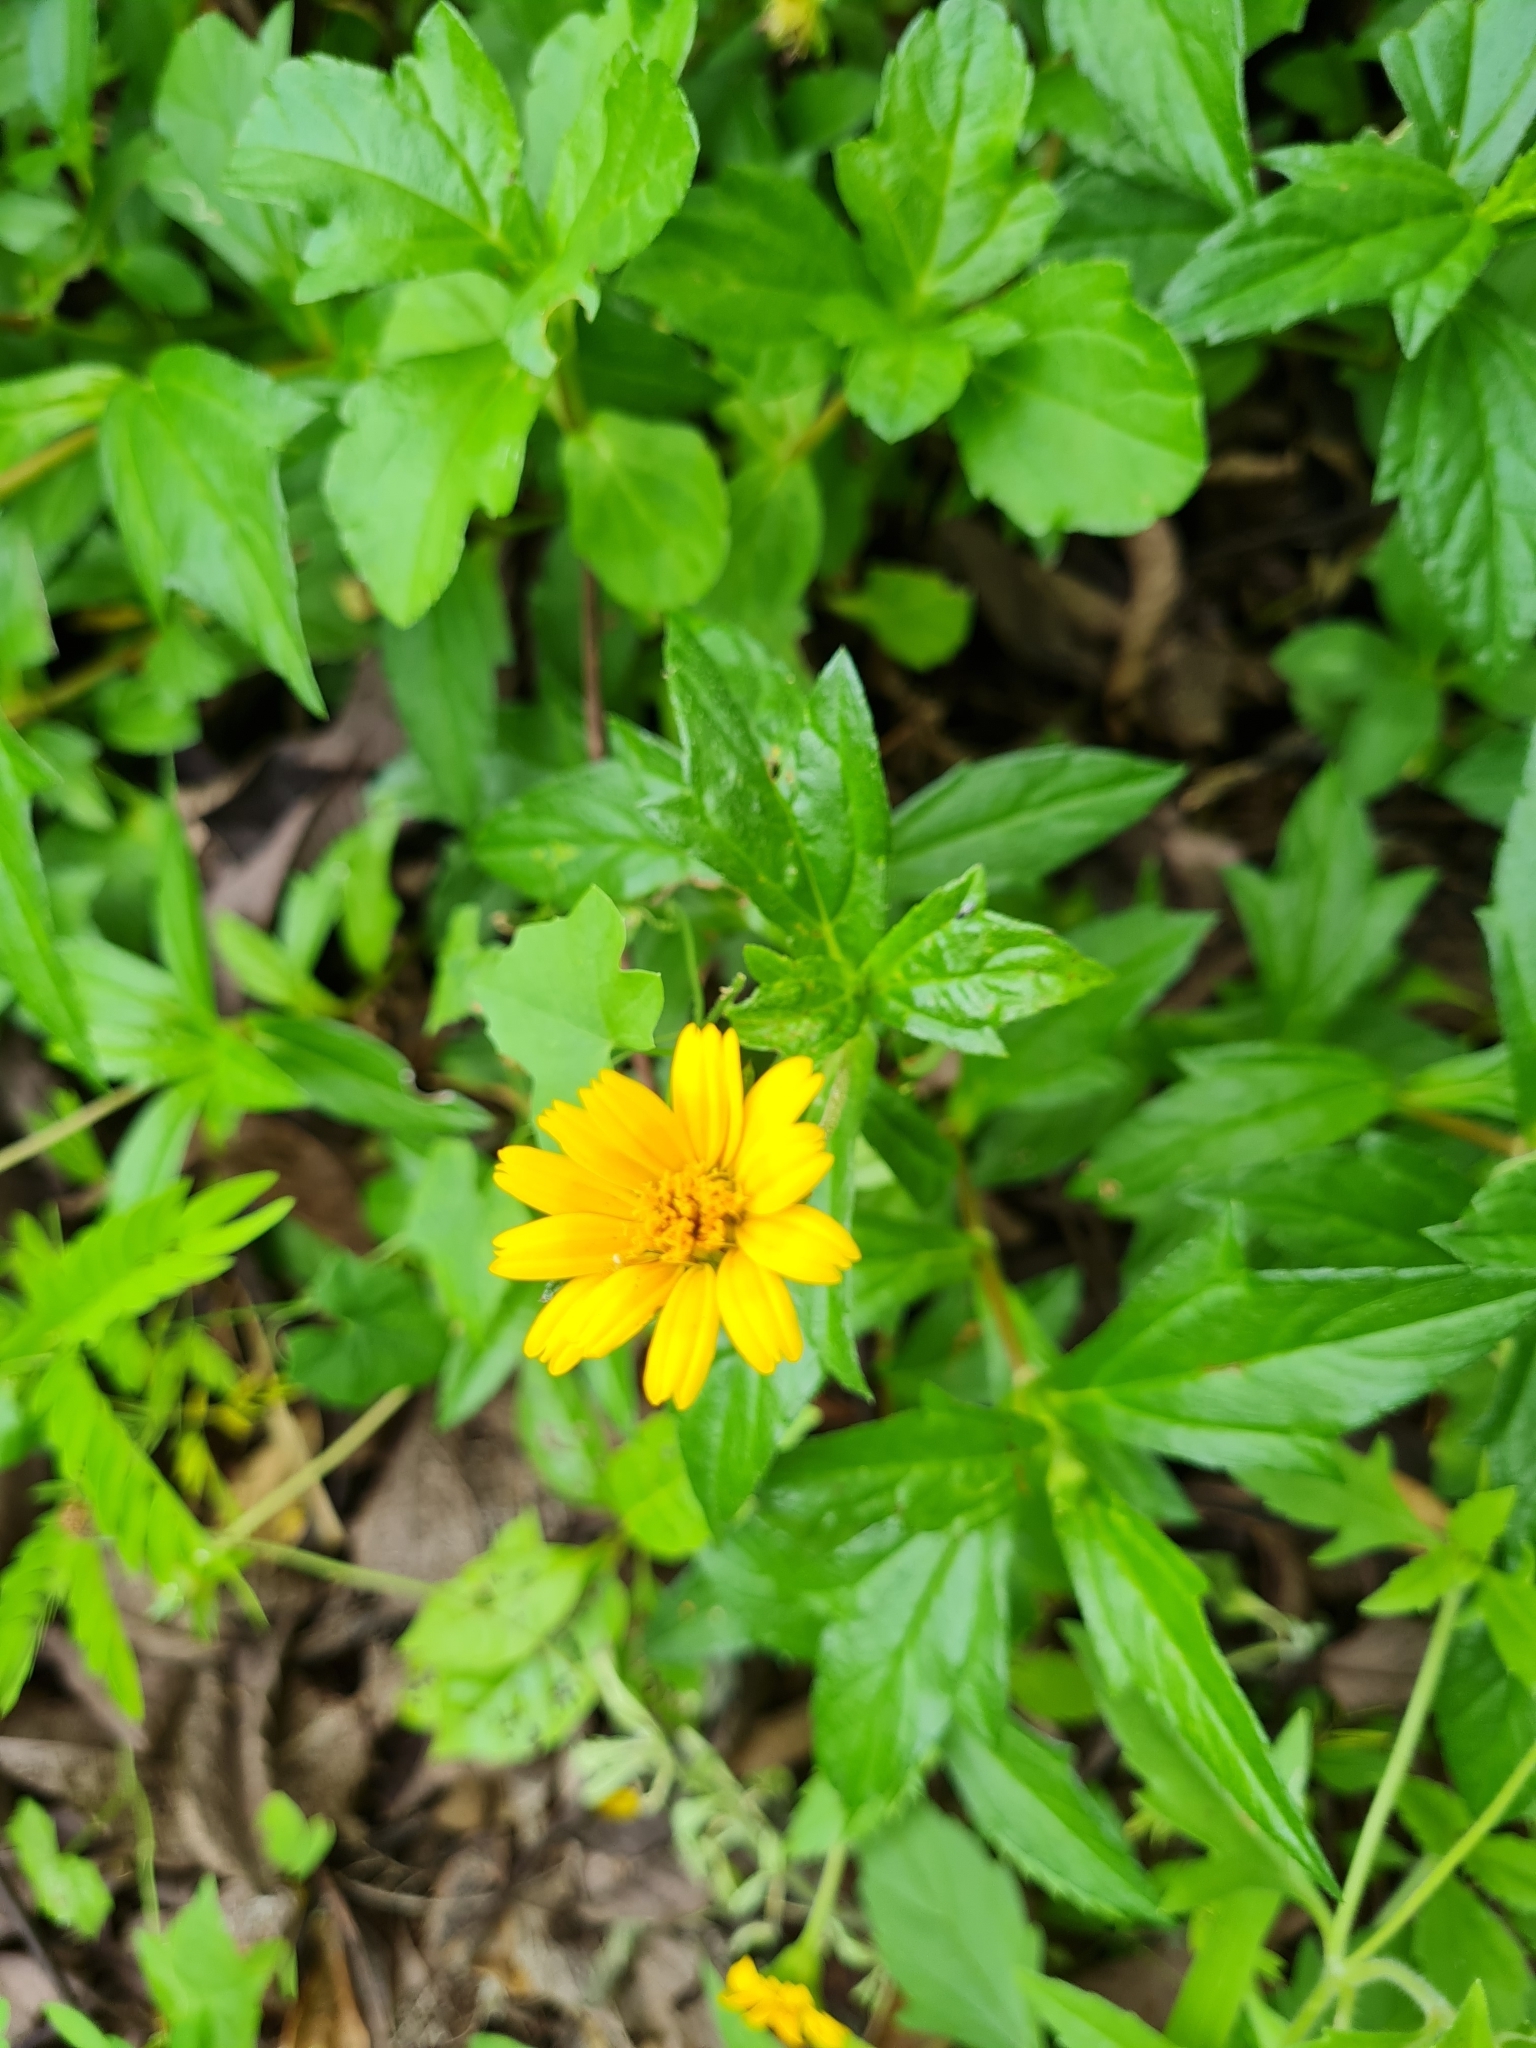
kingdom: Plantae
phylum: Tracheophyta
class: Magnoliopsida
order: Asterales
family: Asteraceae
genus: Sphagneticola
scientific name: Sphagneticola trilobata
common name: Bay biscayne creeping-oxeye
